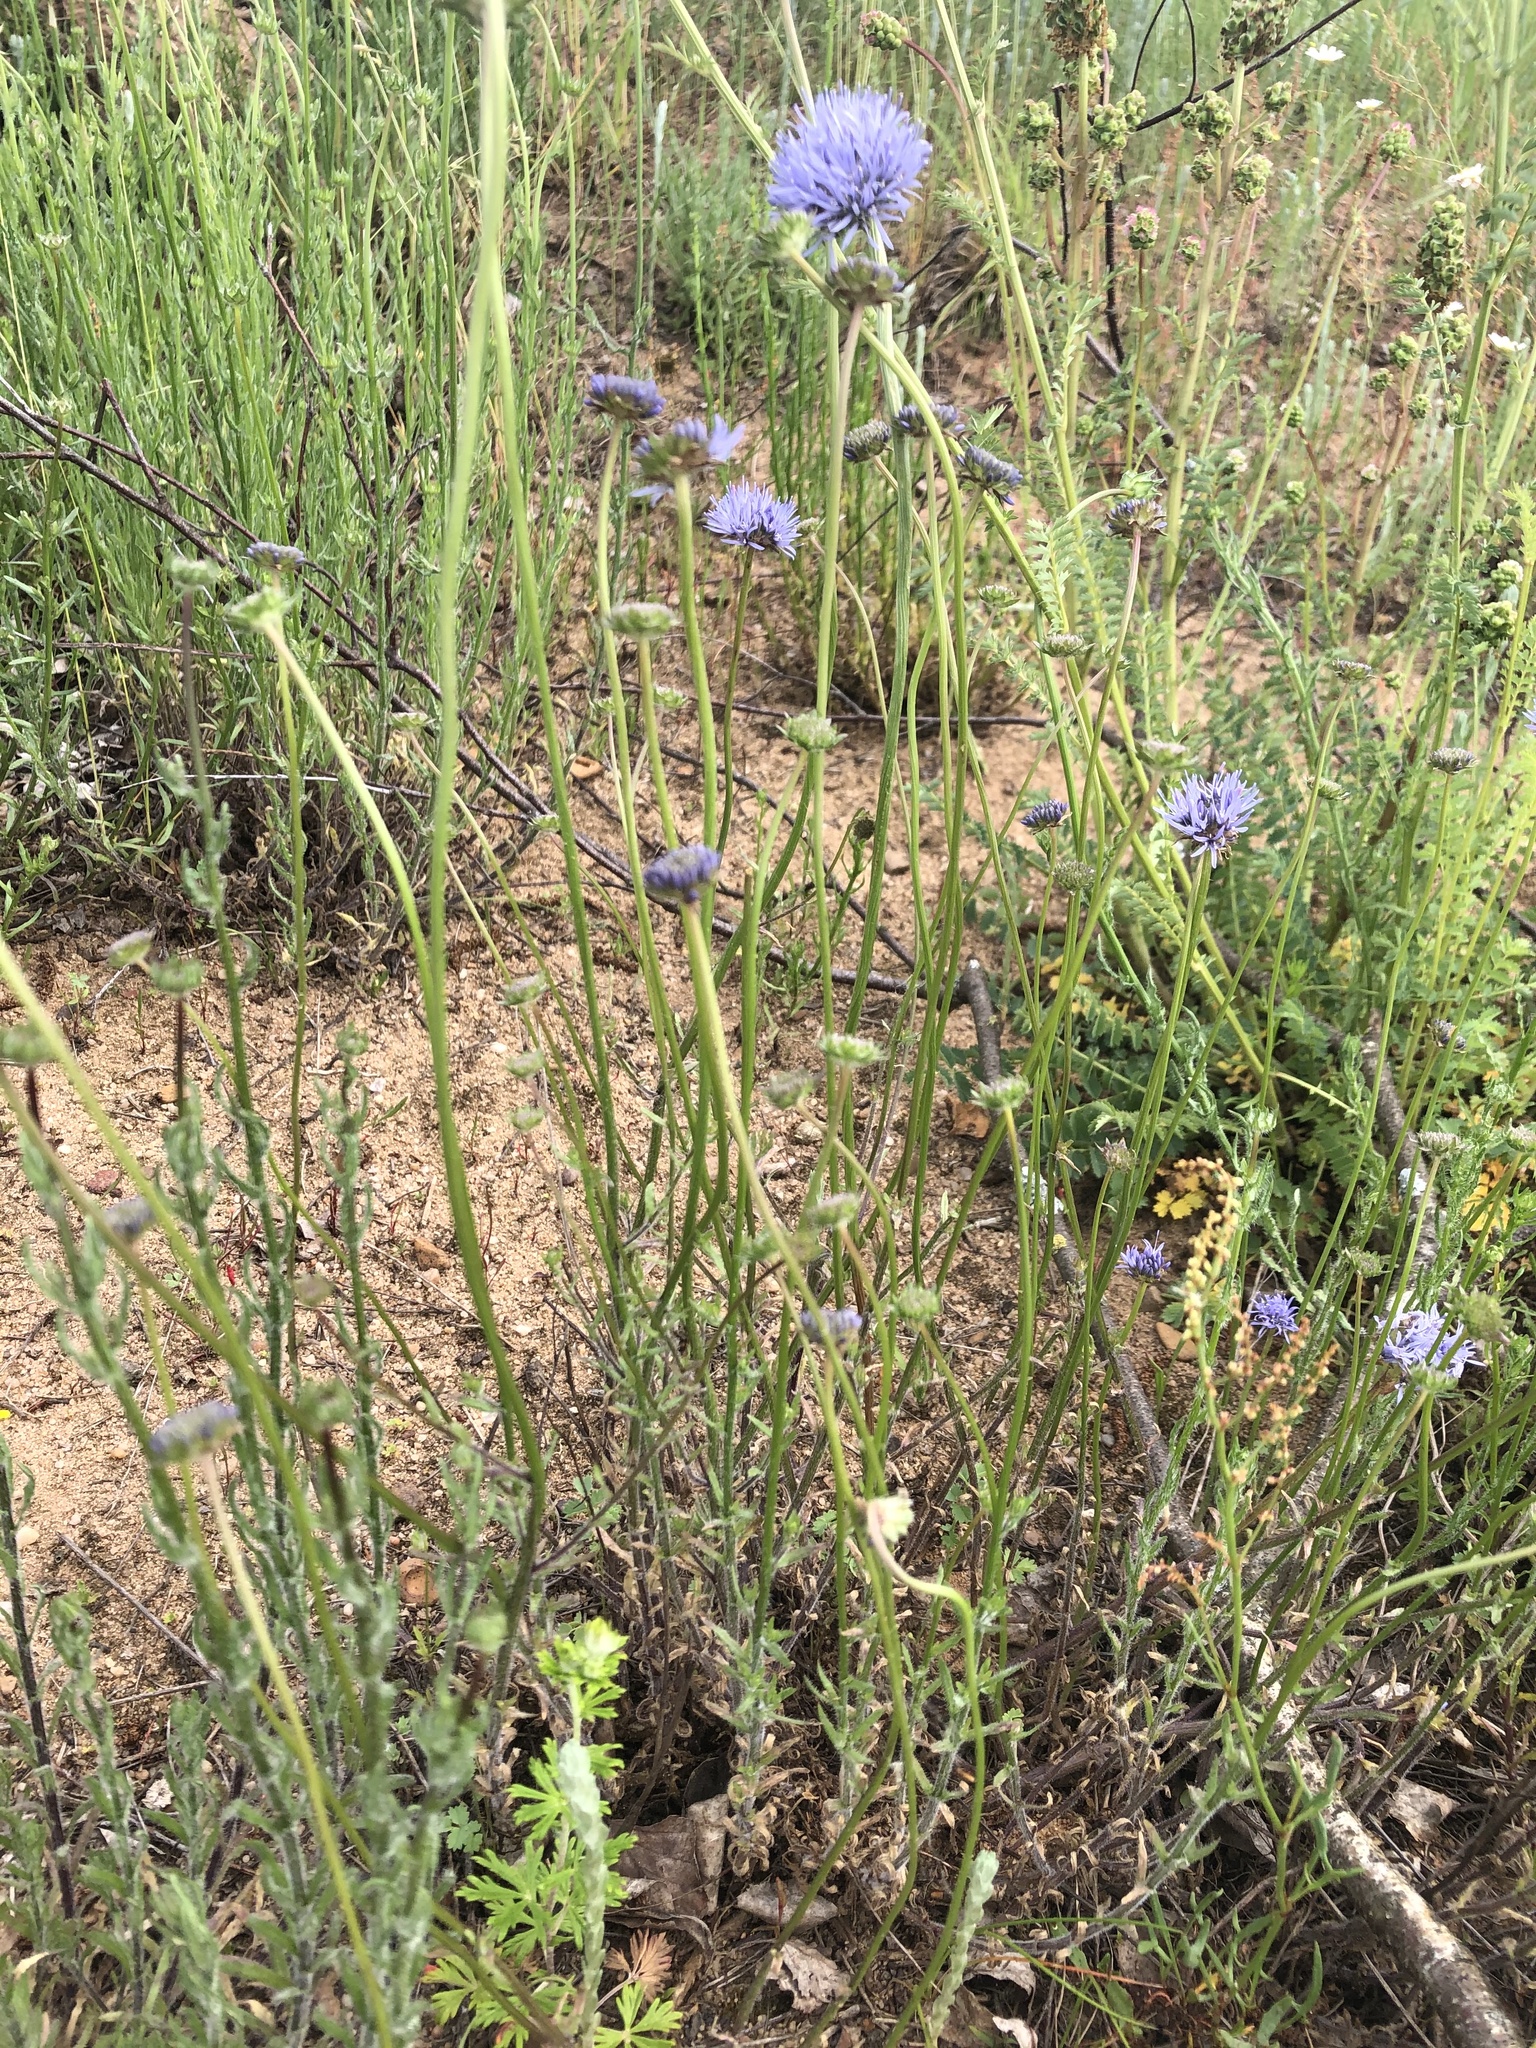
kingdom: Plantae
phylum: Tracheophyta
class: Magnoliopsida
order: Asterales
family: Campanulaceae
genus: Jasione
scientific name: Jasione montana
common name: Sheep's-bit
